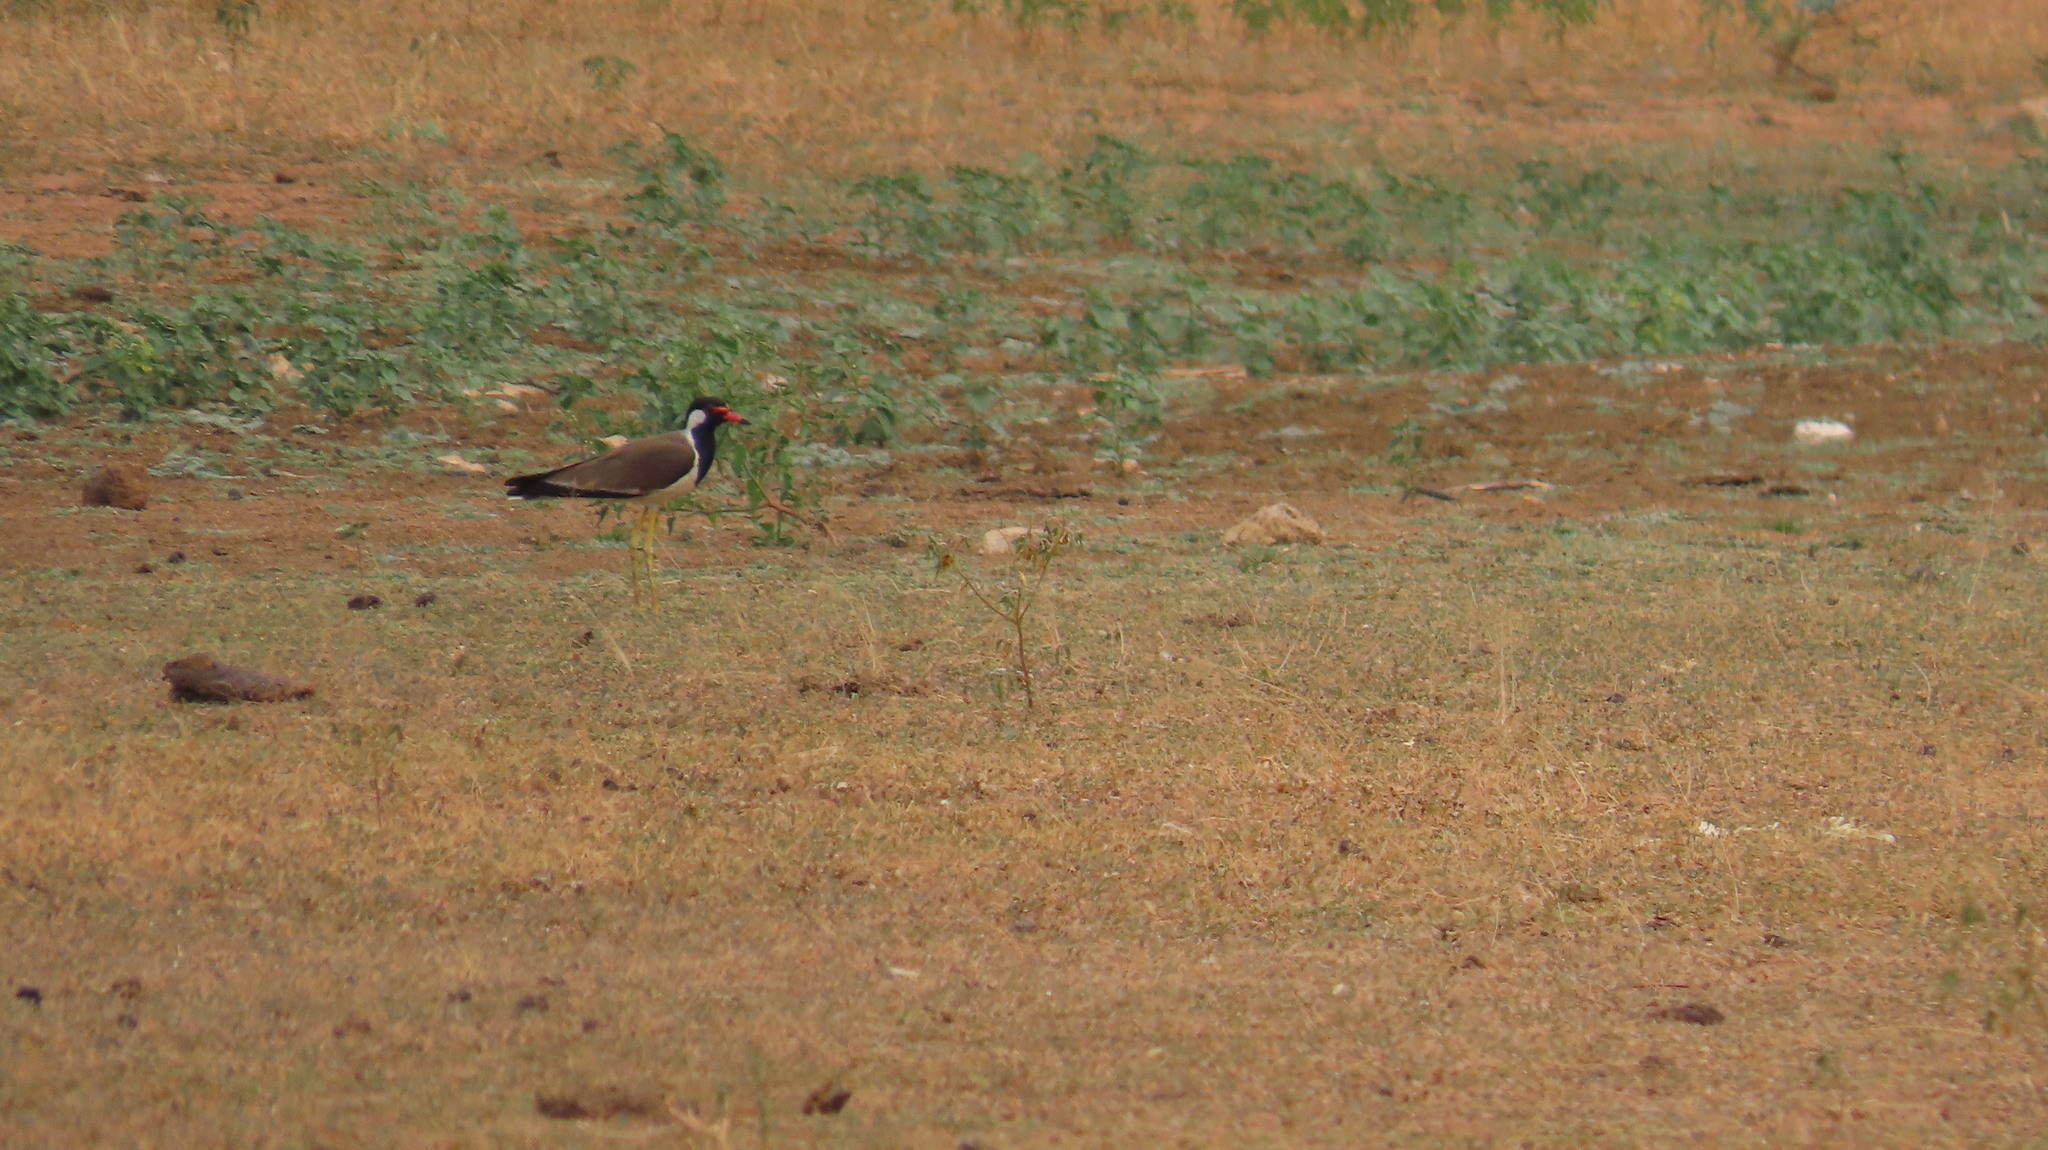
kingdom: Animalia
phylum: Chordata
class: Aves
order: Charadriiformes
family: Charadriidae
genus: Vanellus
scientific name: Vanellus indicus
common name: Red-wattled lapwing
